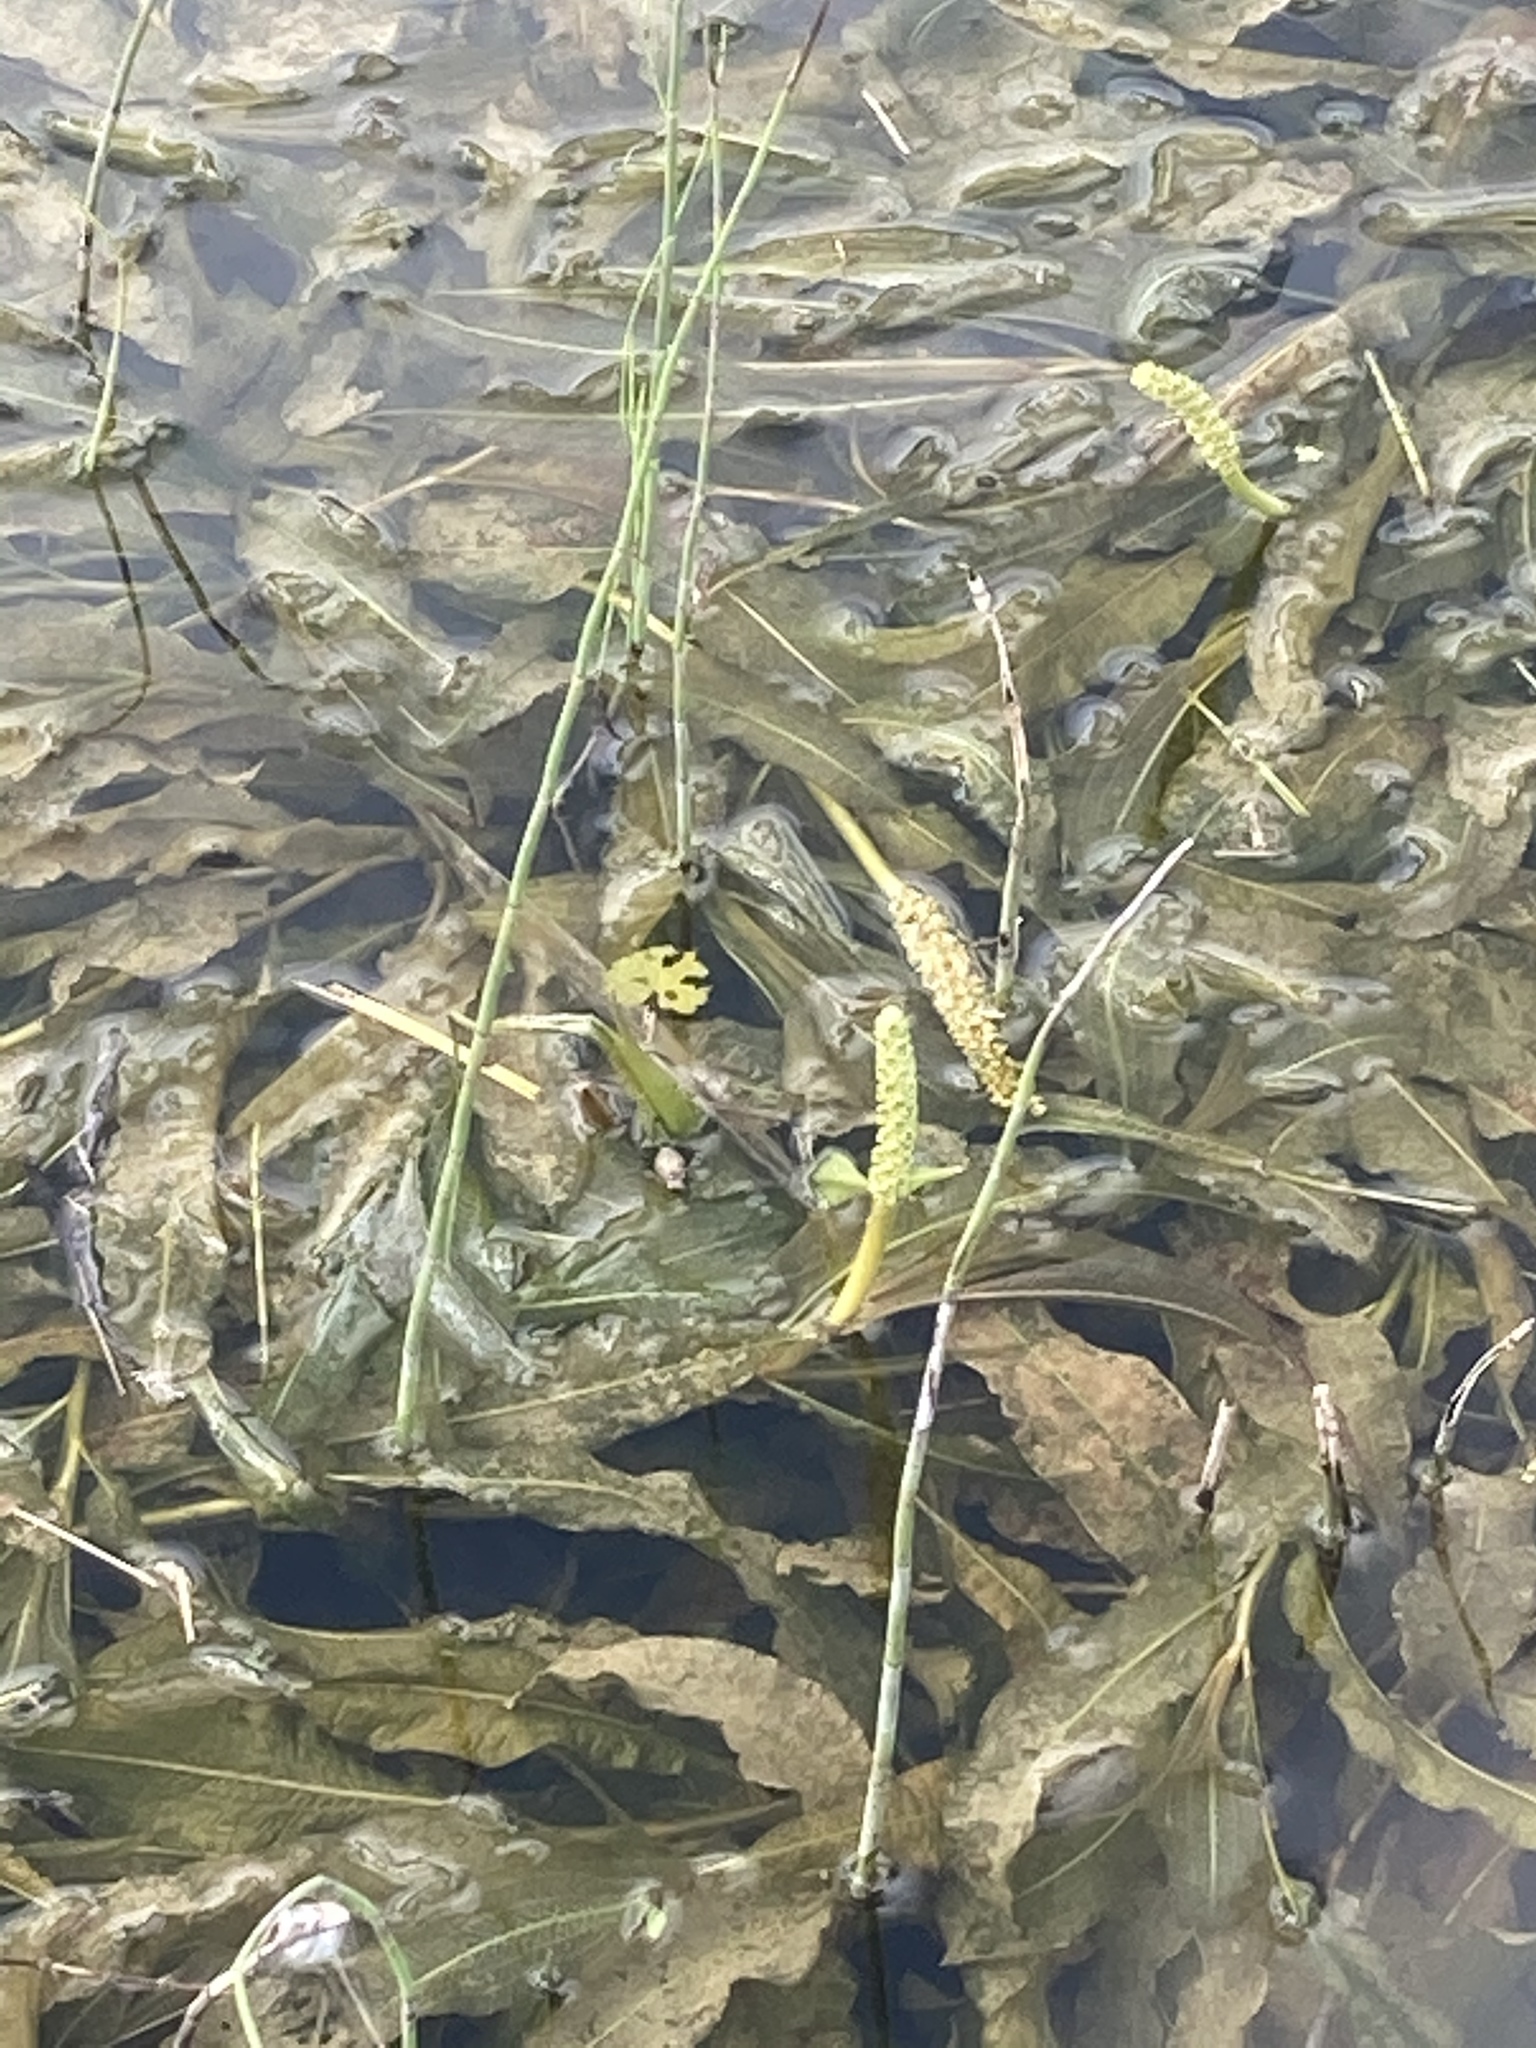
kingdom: Plantae
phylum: Tracheophyta
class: Liliopsida
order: Alismatales
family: Potamogetonaceae
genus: Potamogeton
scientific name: Potamogeton lucens
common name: Shining pondweed
